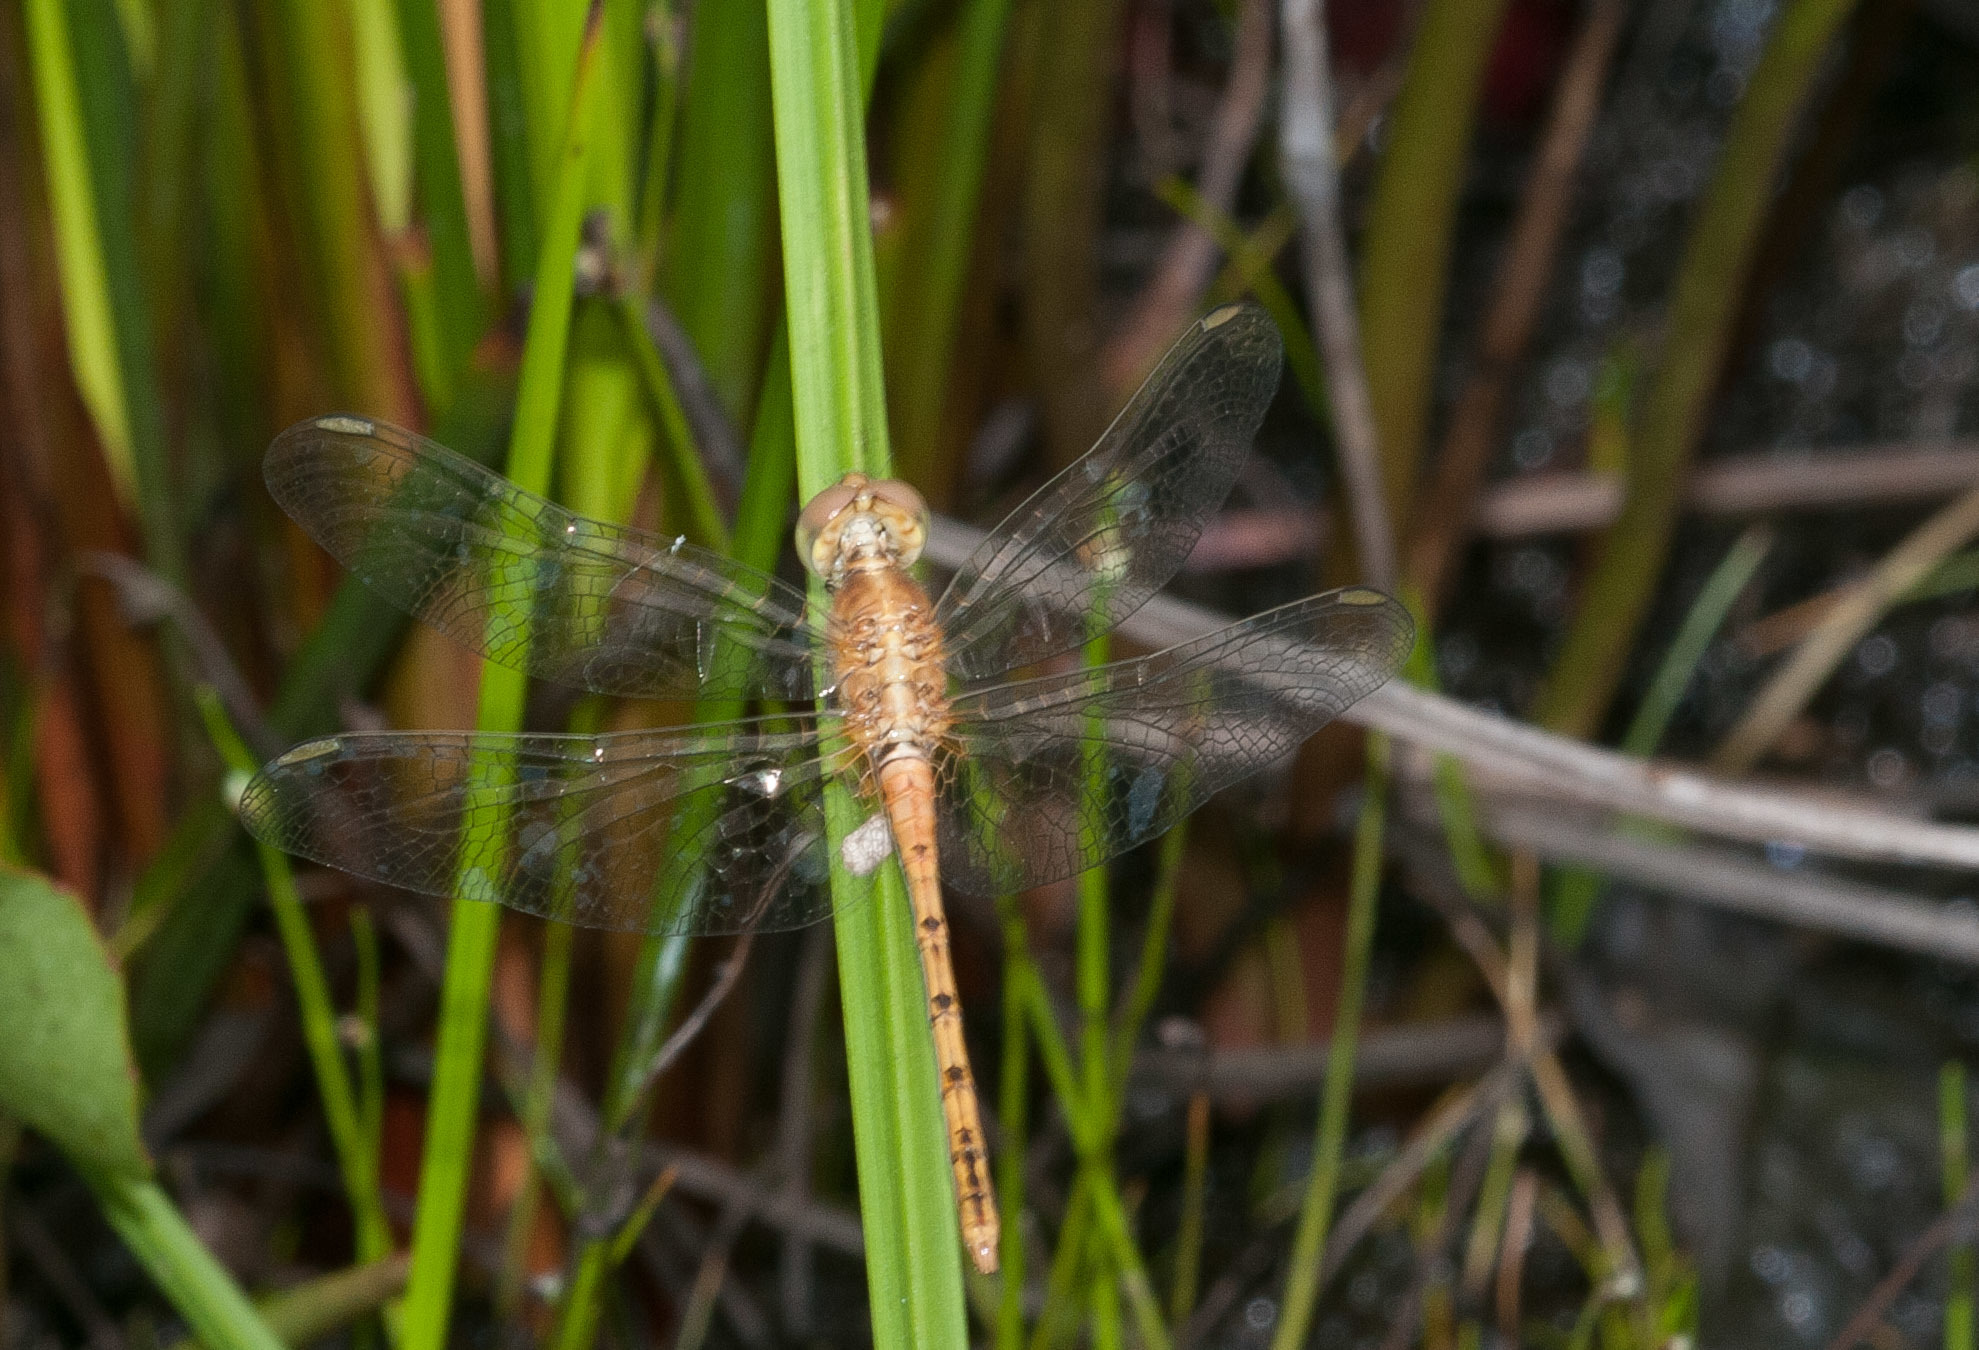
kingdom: Animalia
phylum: Arthropoda
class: Insecta
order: Odonata
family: Libellulidae
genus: Diplacodes
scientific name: Diplacodes bipunctata
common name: Red percher dragonfly
